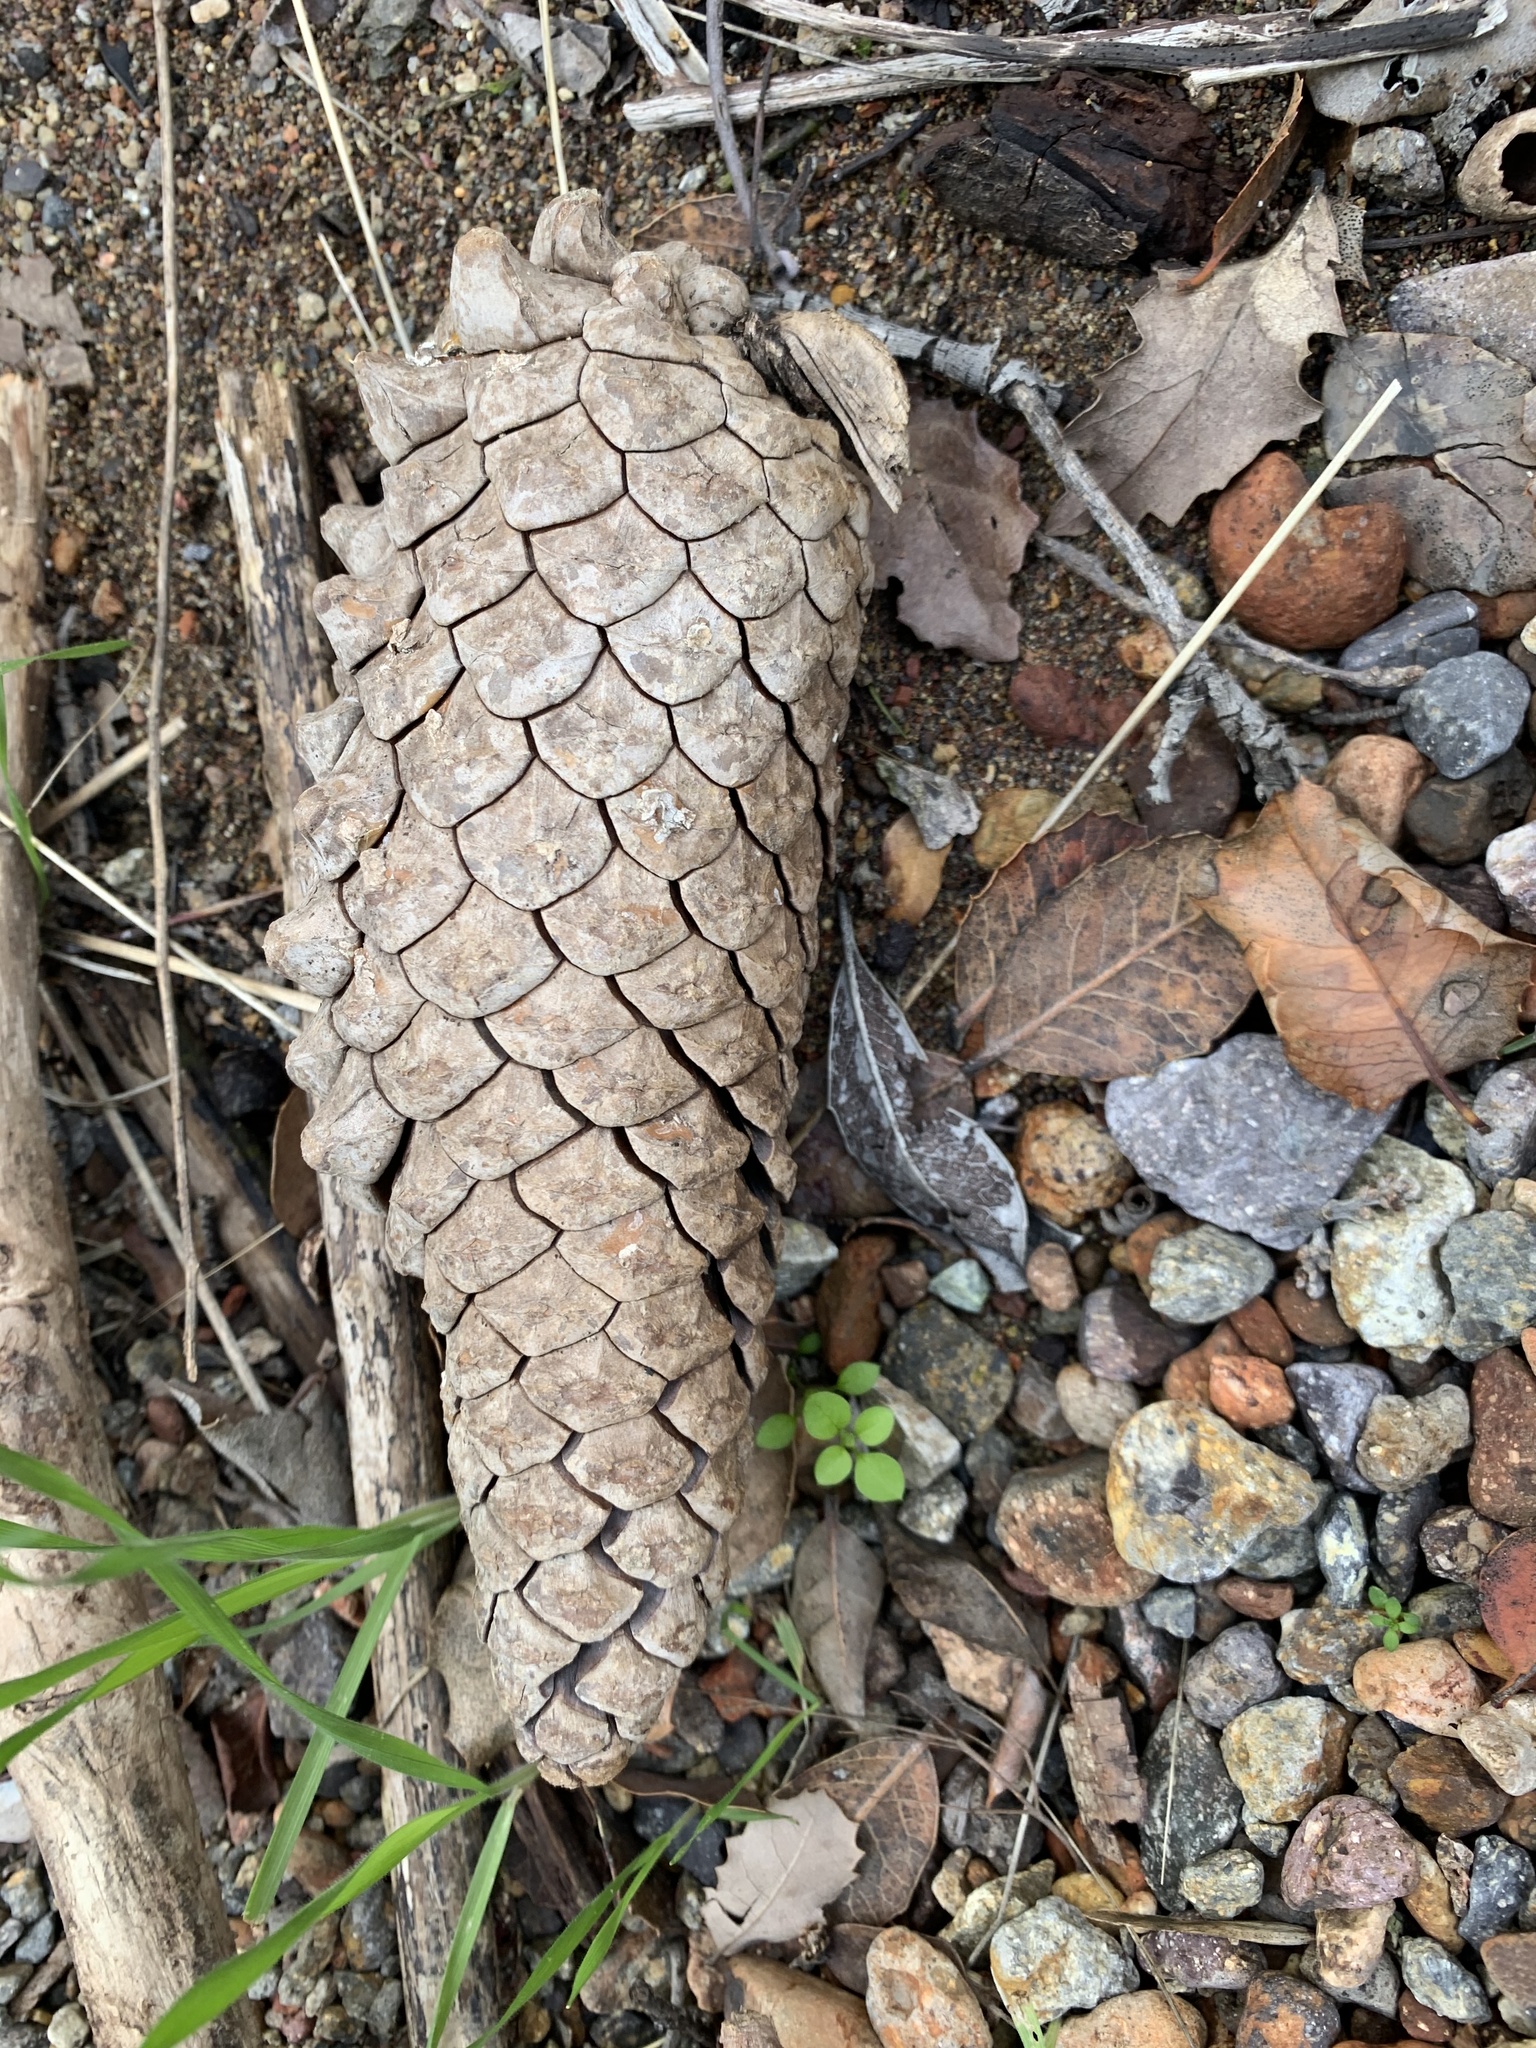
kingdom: Plantae
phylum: Tracheophyta
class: Pinopsida
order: Pinales
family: Pinaceae
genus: Pinus
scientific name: Pinus attenuata
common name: Knobcone pine
